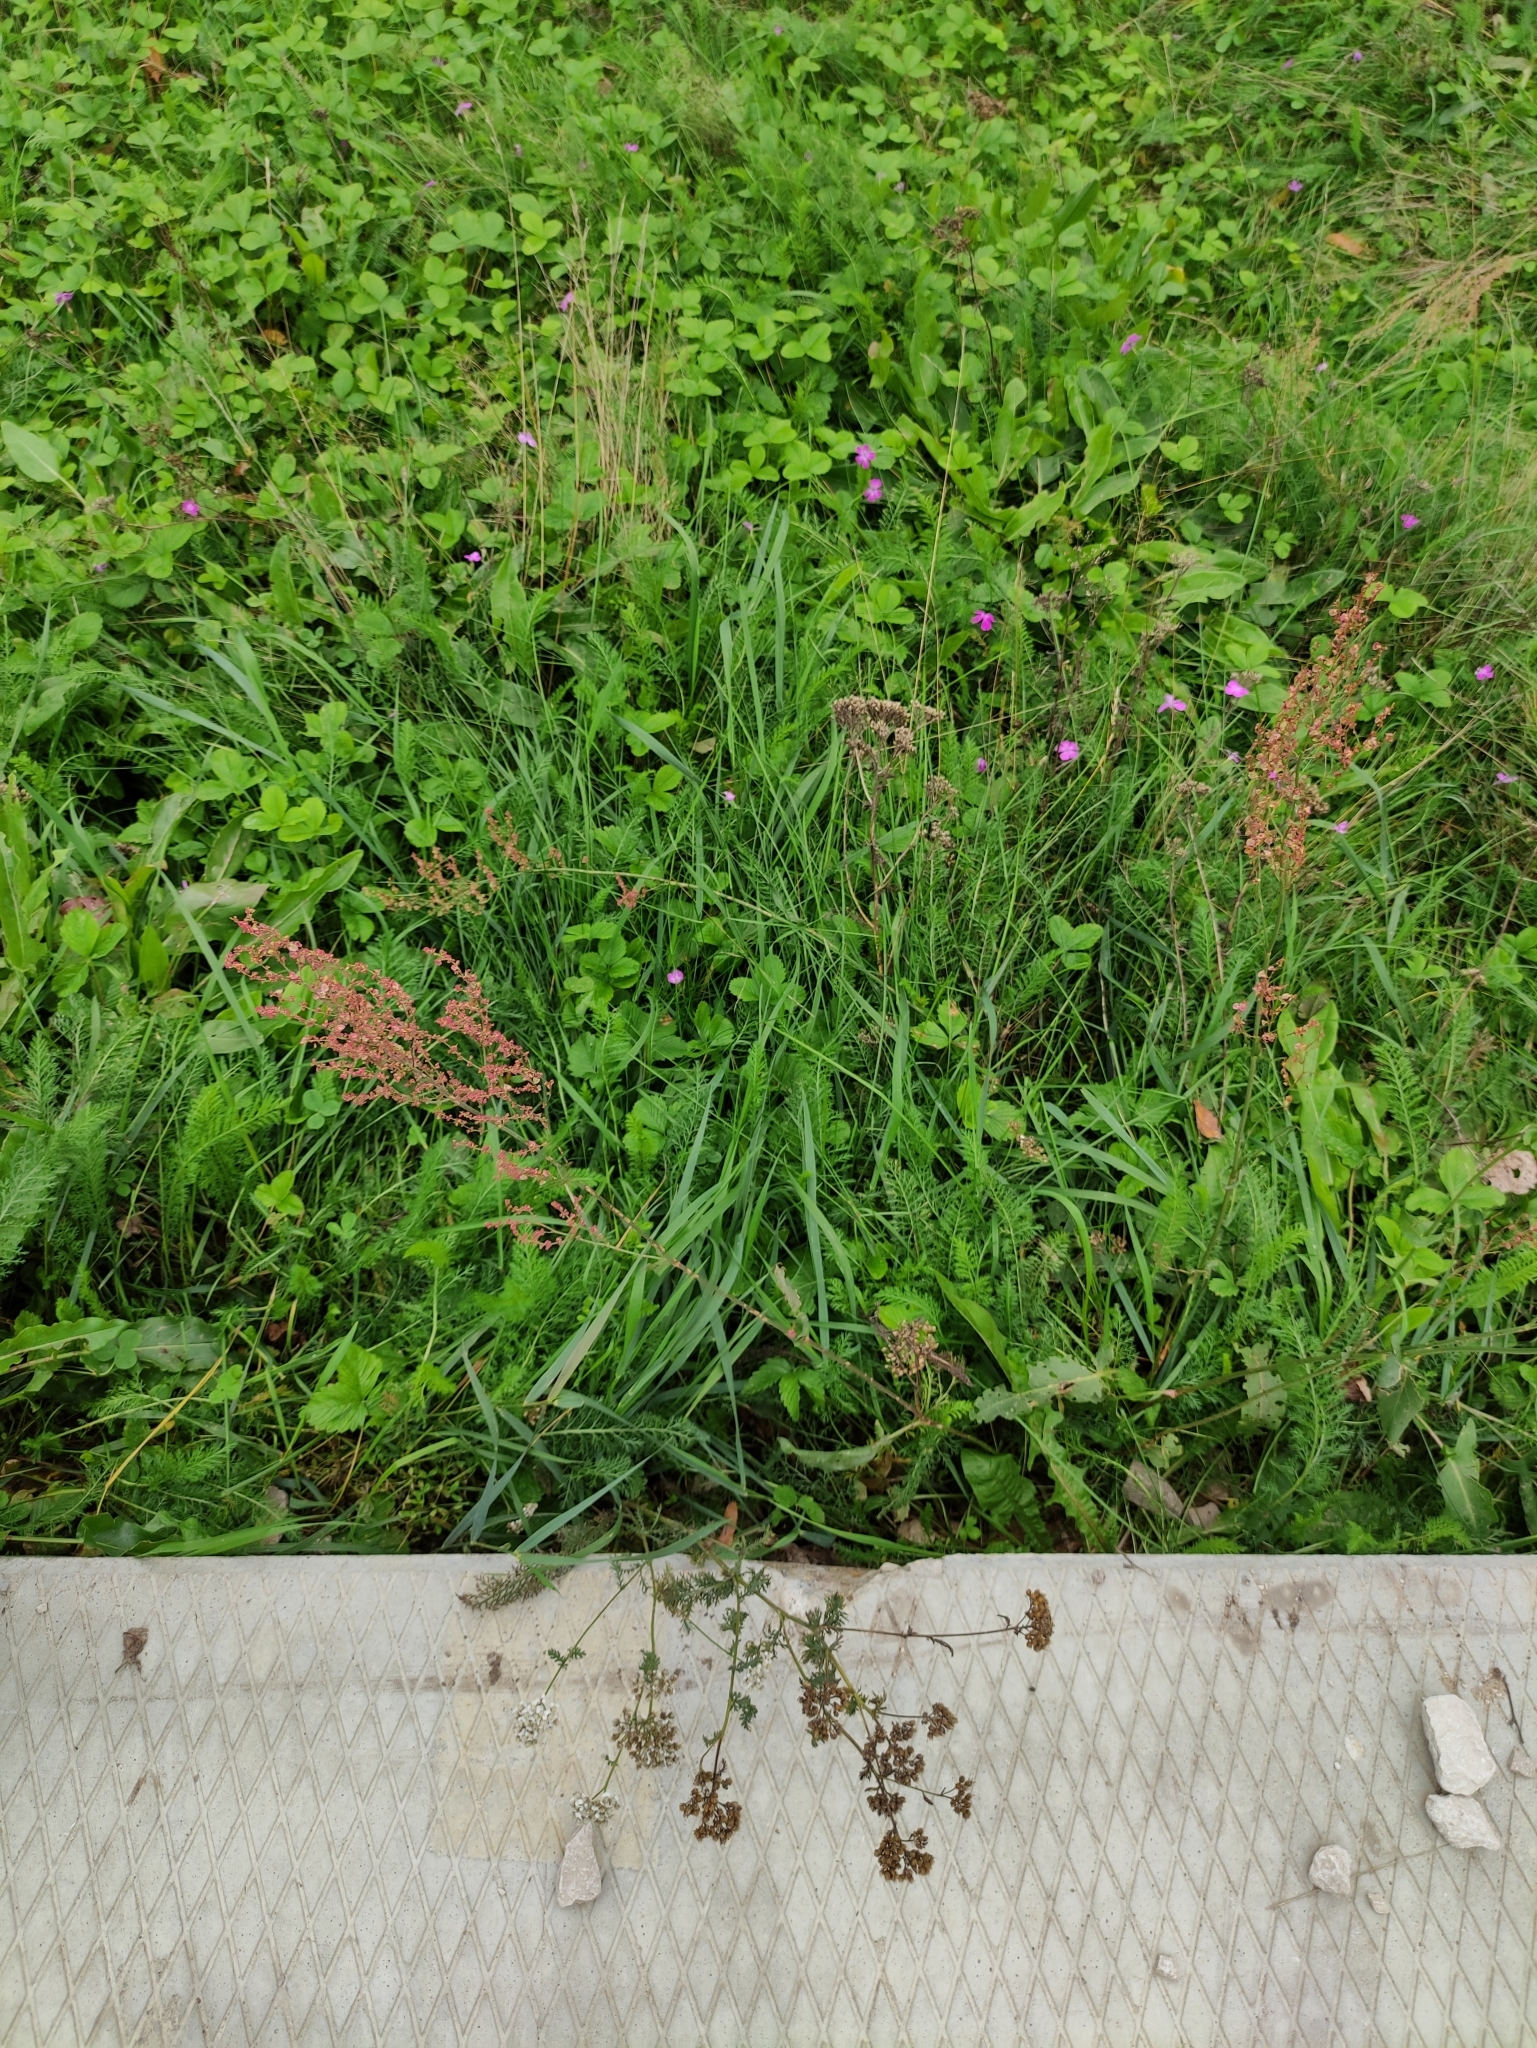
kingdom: Plantae
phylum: Tracheophyta
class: Magnoliopsida
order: Caryophyllales
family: Polygonaceae
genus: Rumex
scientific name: Rumex thyrsiflorus
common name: Garden sorrel
